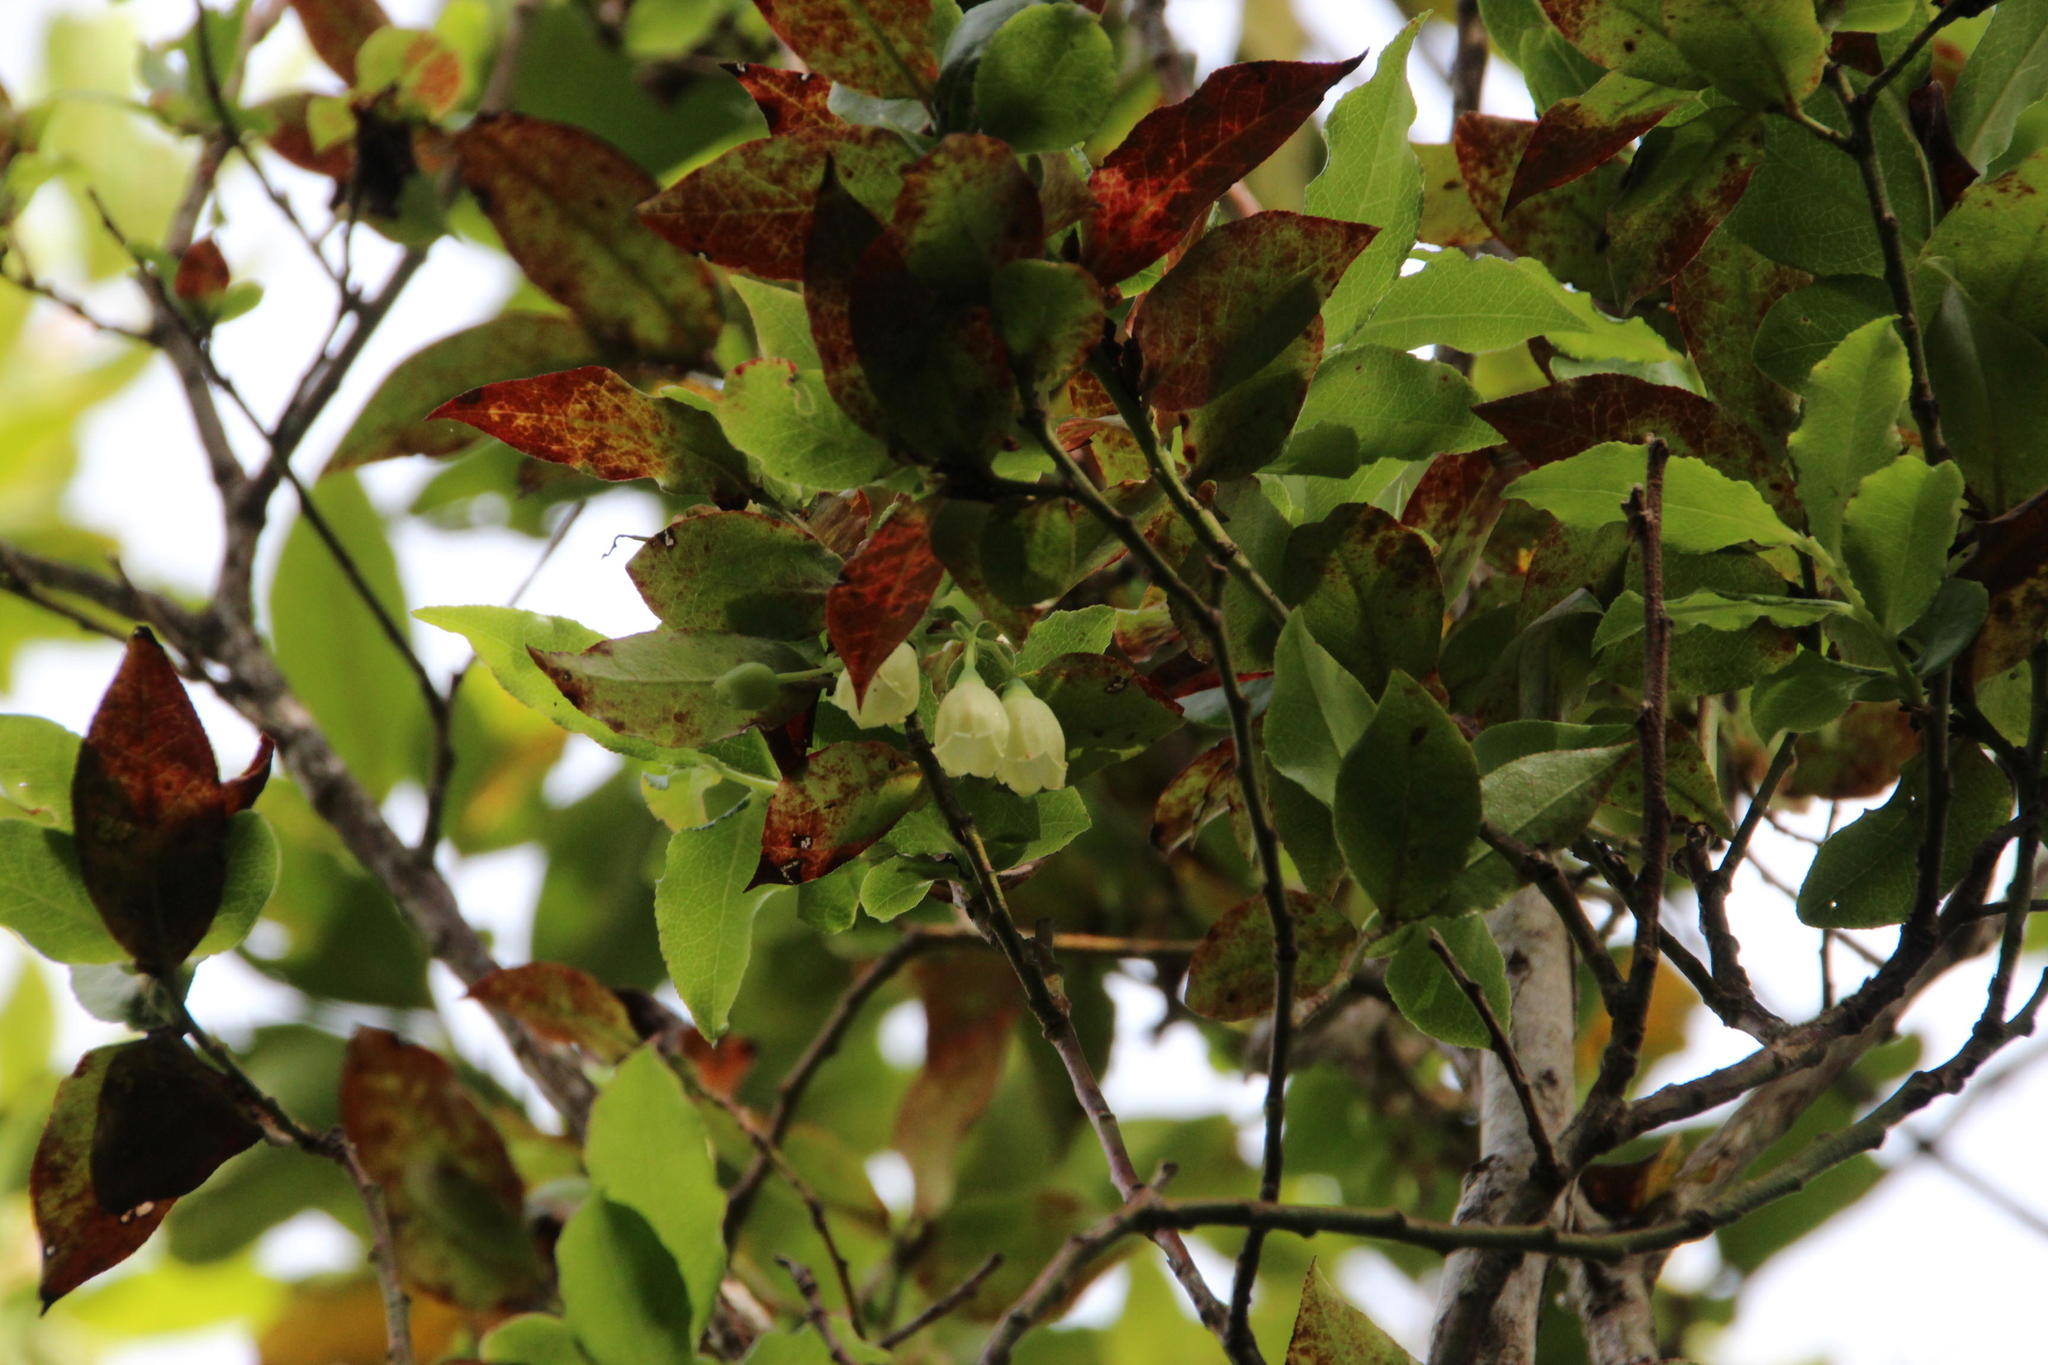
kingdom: Plantae
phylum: Tracheophyta
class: Magnoliopsida
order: Ericales
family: Ericaceae
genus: Vaccinium
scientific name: Vaccinium padifolium
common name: Madeiran blueberry
